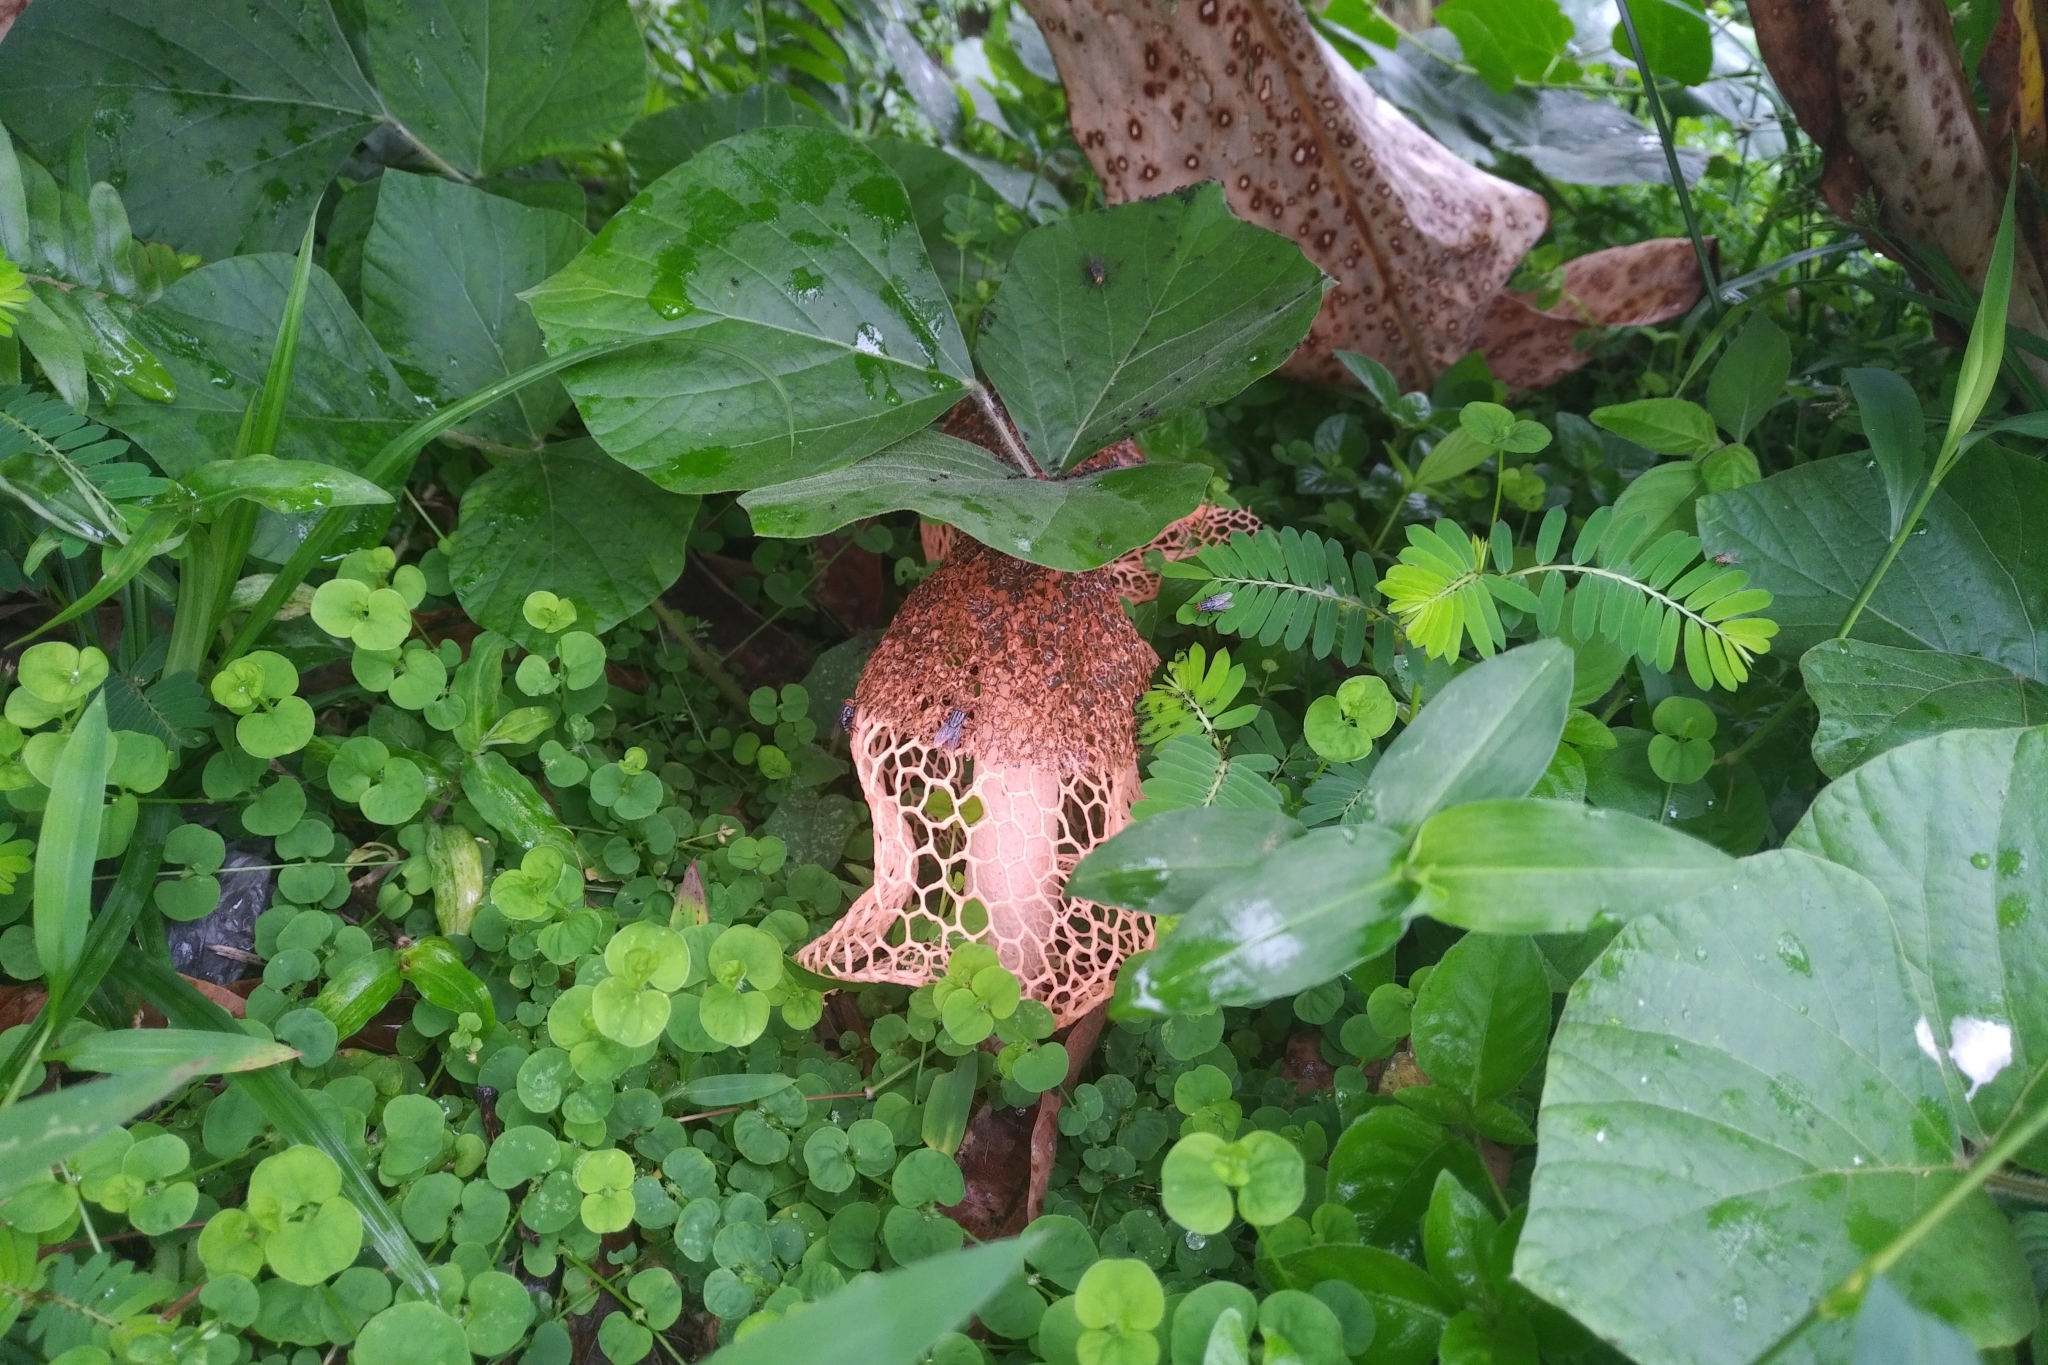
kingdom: Fungi
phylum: Basidiomycota
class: Agaricomycetes
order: Phallales
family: Phallaceae
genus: Phallus
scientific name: Phallus haitangensis
